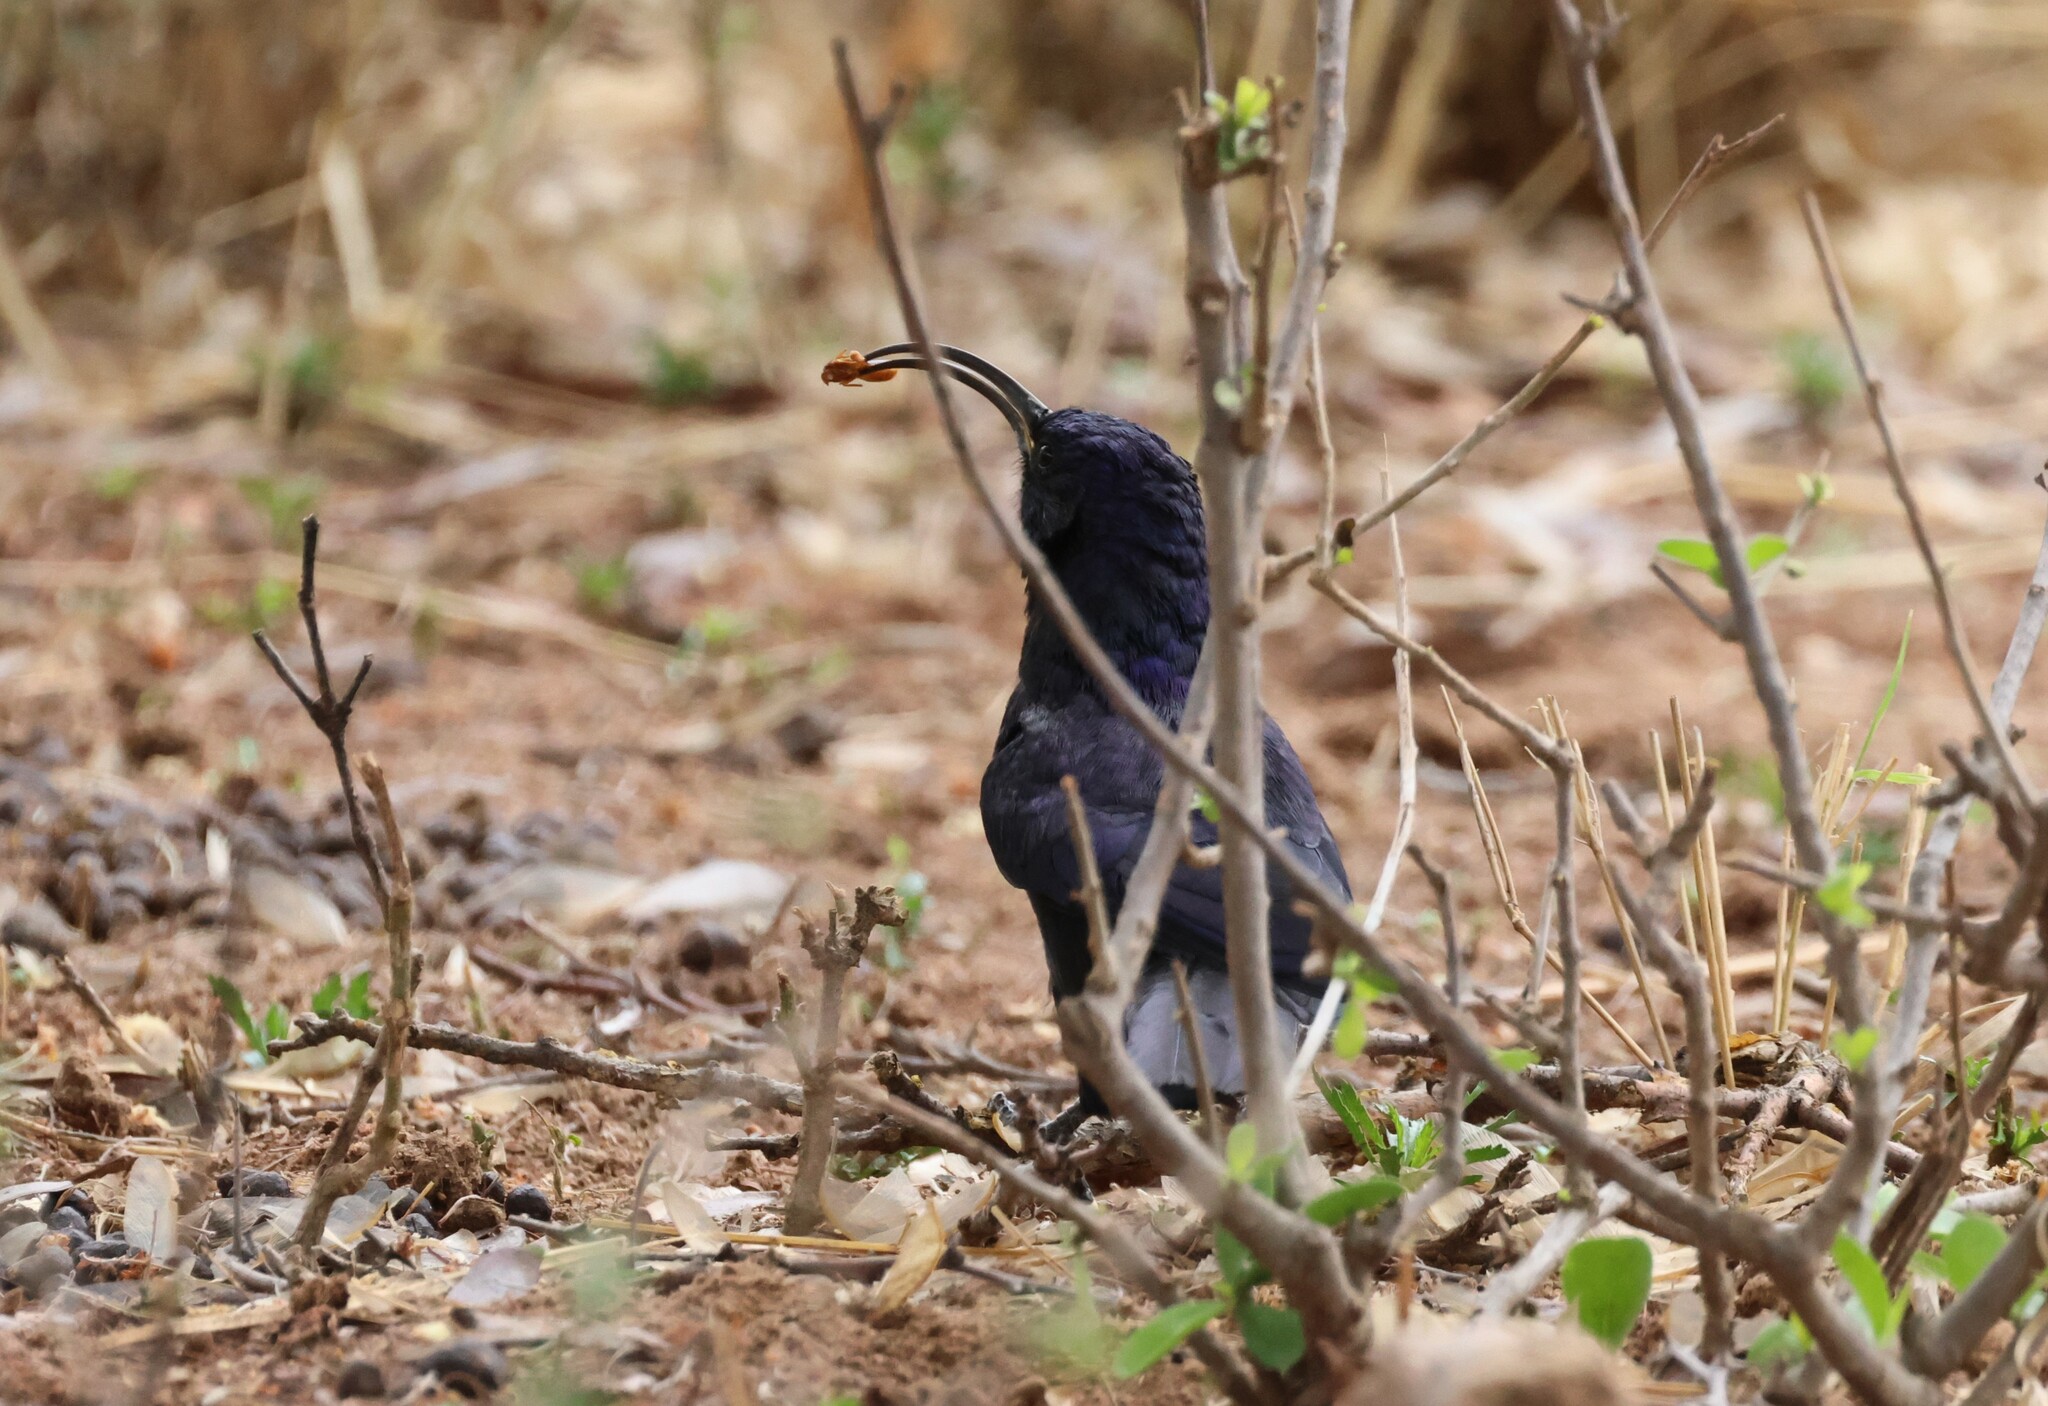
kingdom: Animalia
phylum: Chordata
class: Aves
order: Bucerotiformes
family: Phoeniculidae
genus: Rhinopomastus
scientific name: Rhinopomastus cyanomelas
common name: Common scimitarbill
